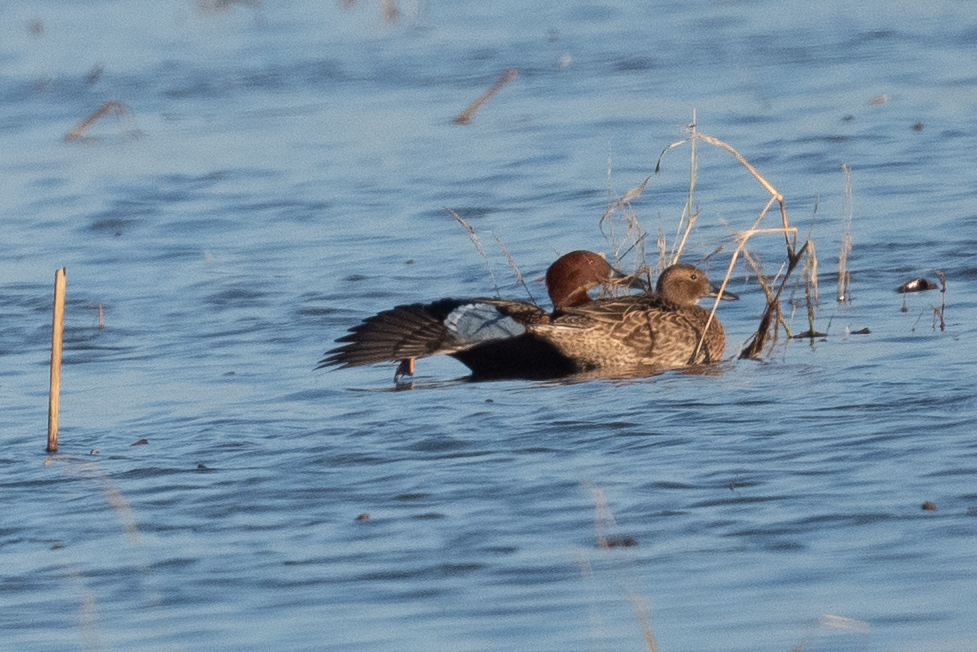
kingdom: Animalia
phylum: Chordata
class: Aves
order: Anseriformes
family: Anatidae
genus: Spatula
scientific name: Spatula cyanoptera
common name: Cinnamon teal
